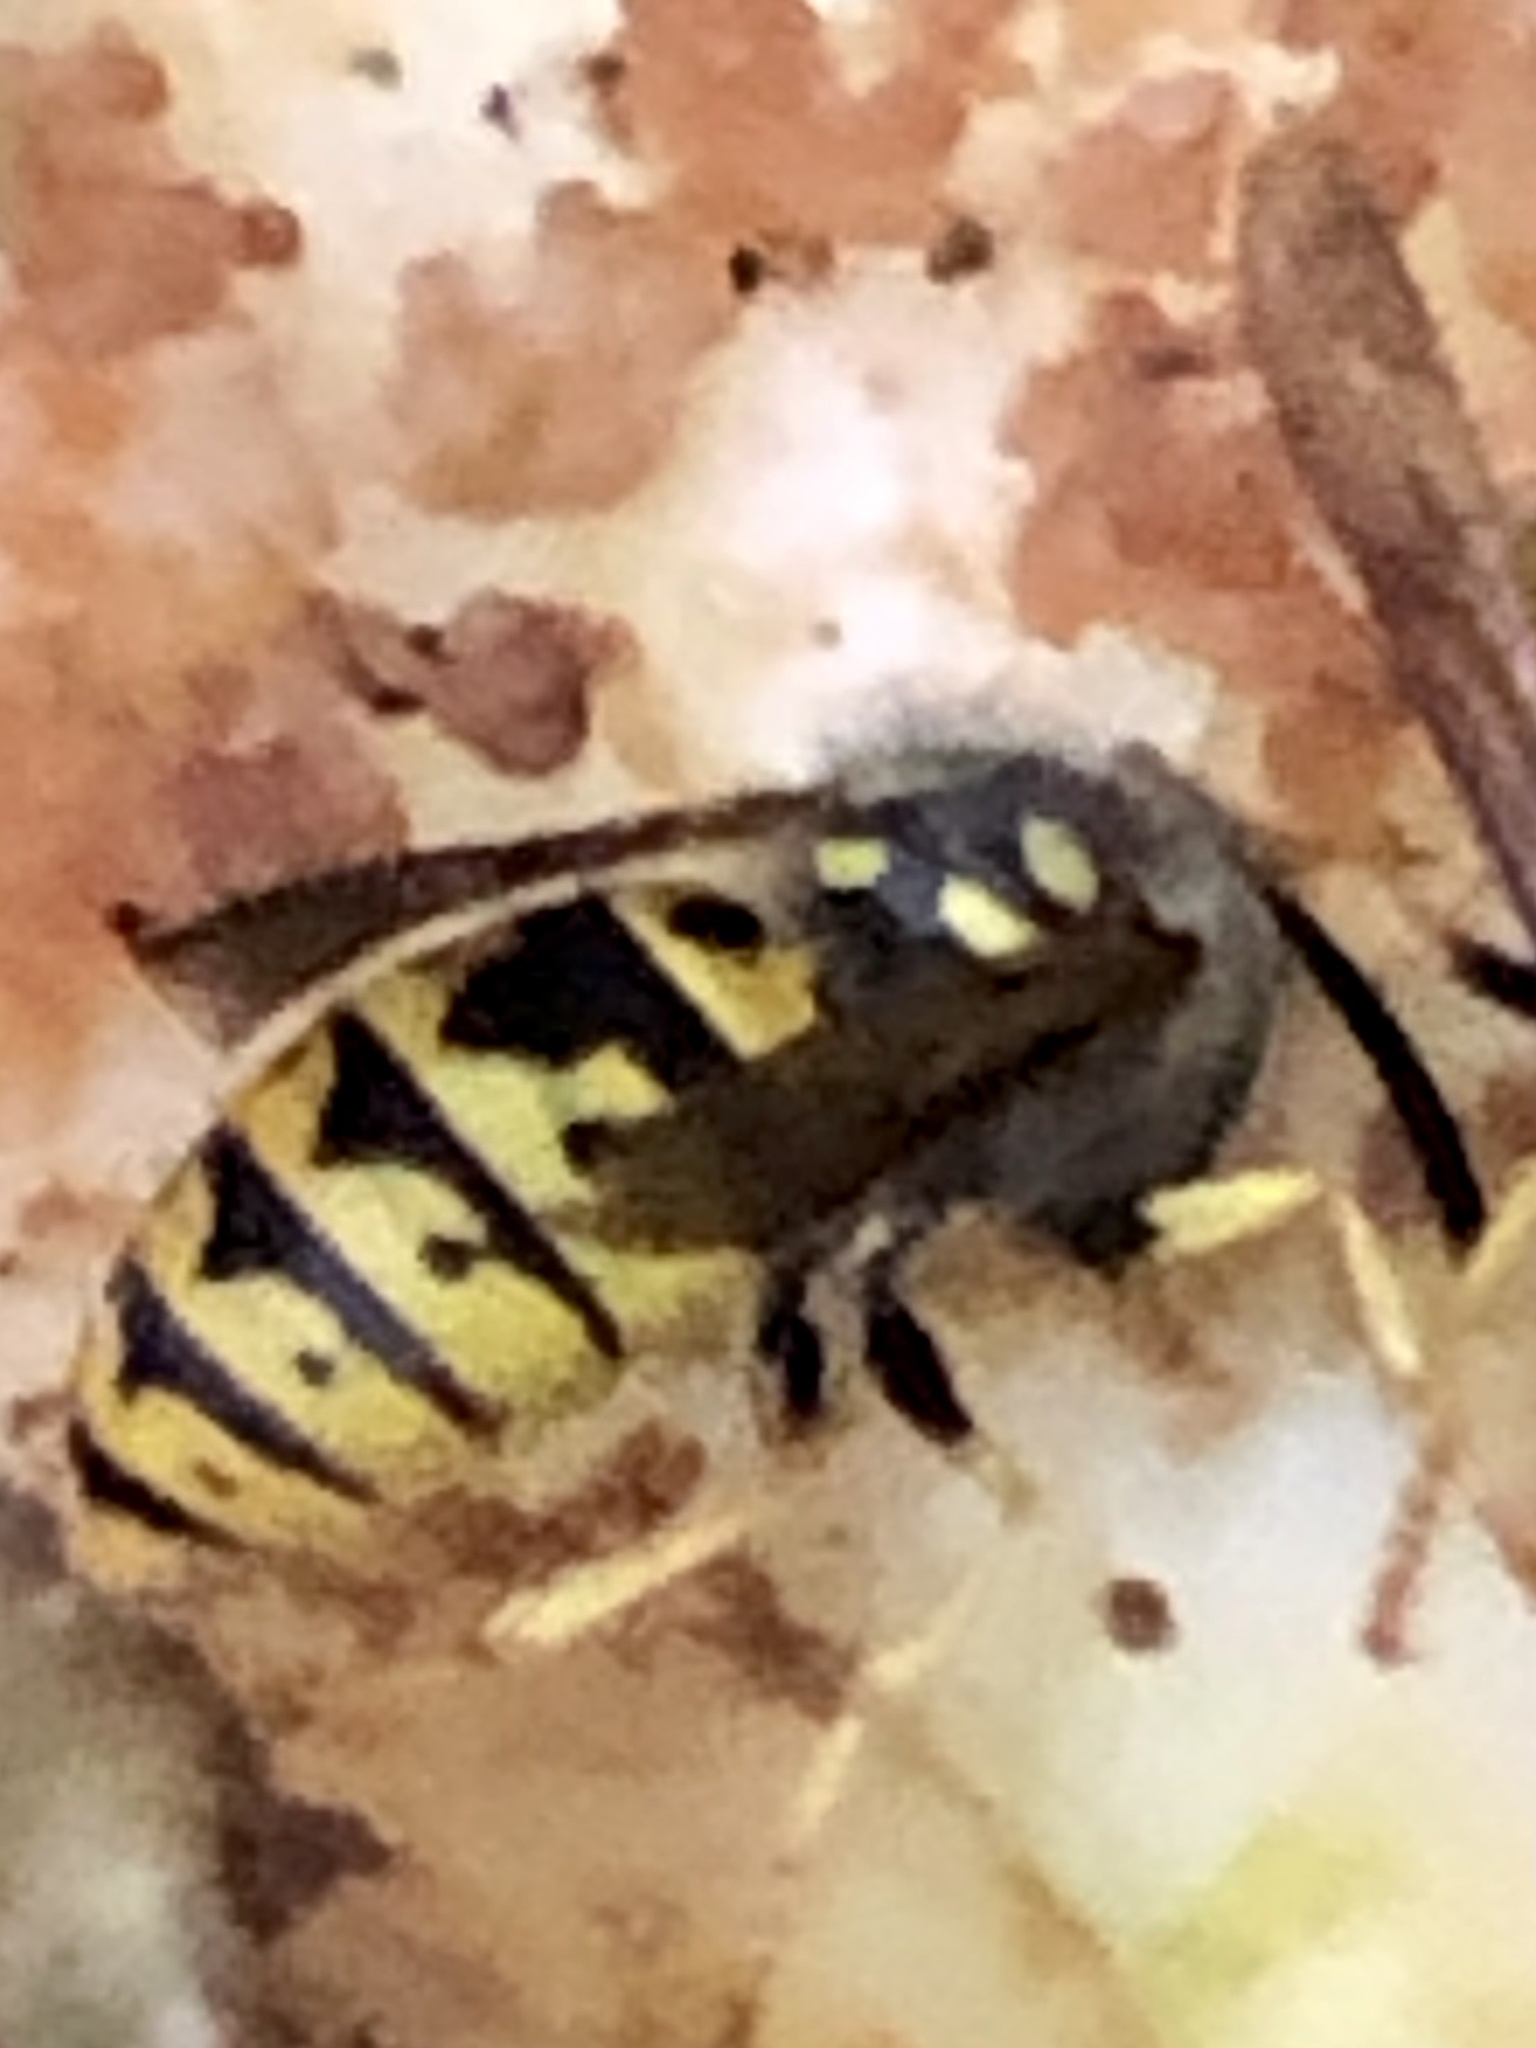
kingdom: Animalia
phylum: Arthropoda
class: Insecta
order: Hymenoptera
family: Vespidae
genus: Vespula
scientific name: Vespula germanica
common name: German wasp
